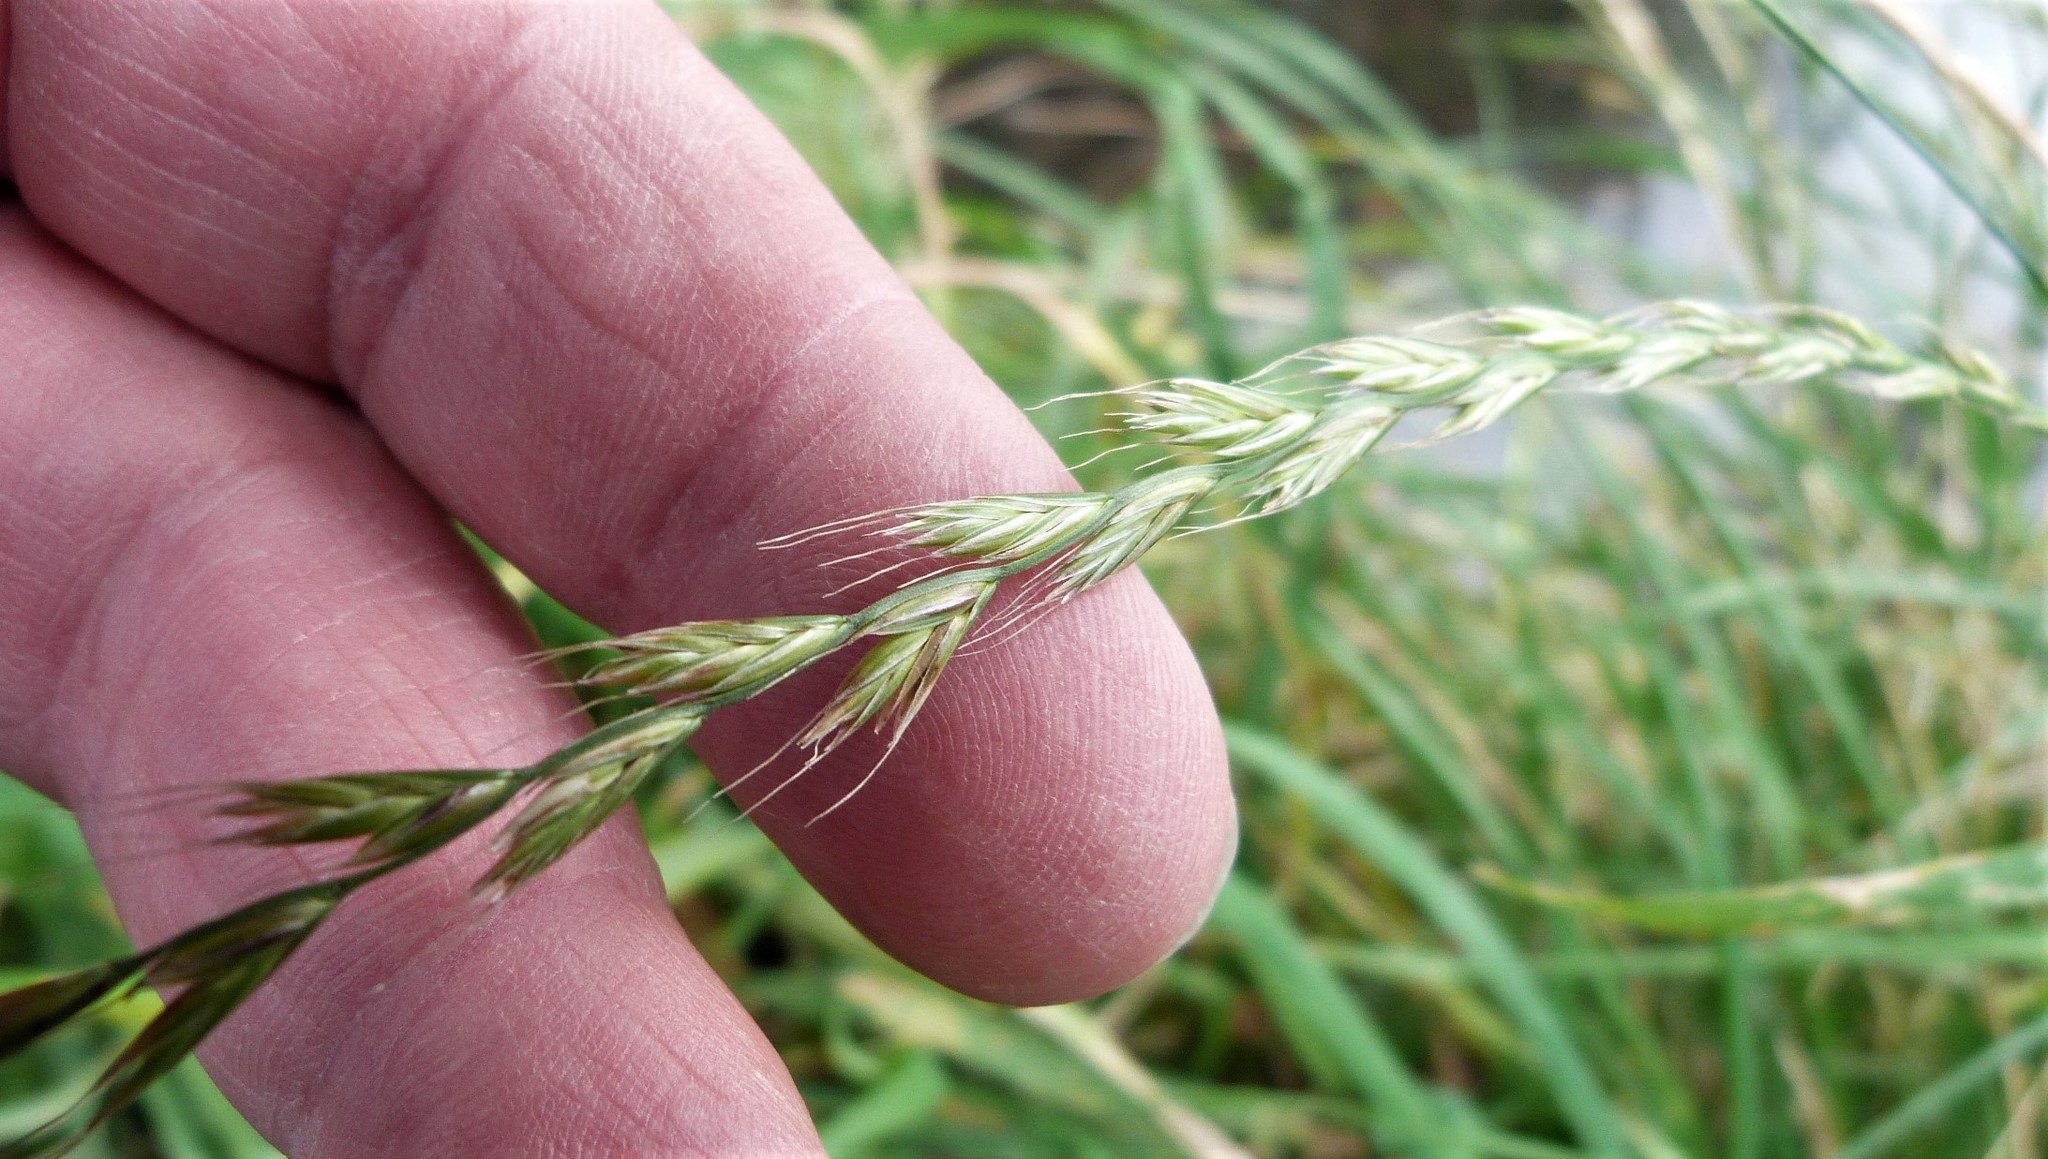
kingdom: Plantae
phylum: Tracheophyta
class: Liliopsida
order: Poales
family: Poaceae
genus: Lolium
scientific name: Lolium multiflorum
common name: Annual ryegrass
